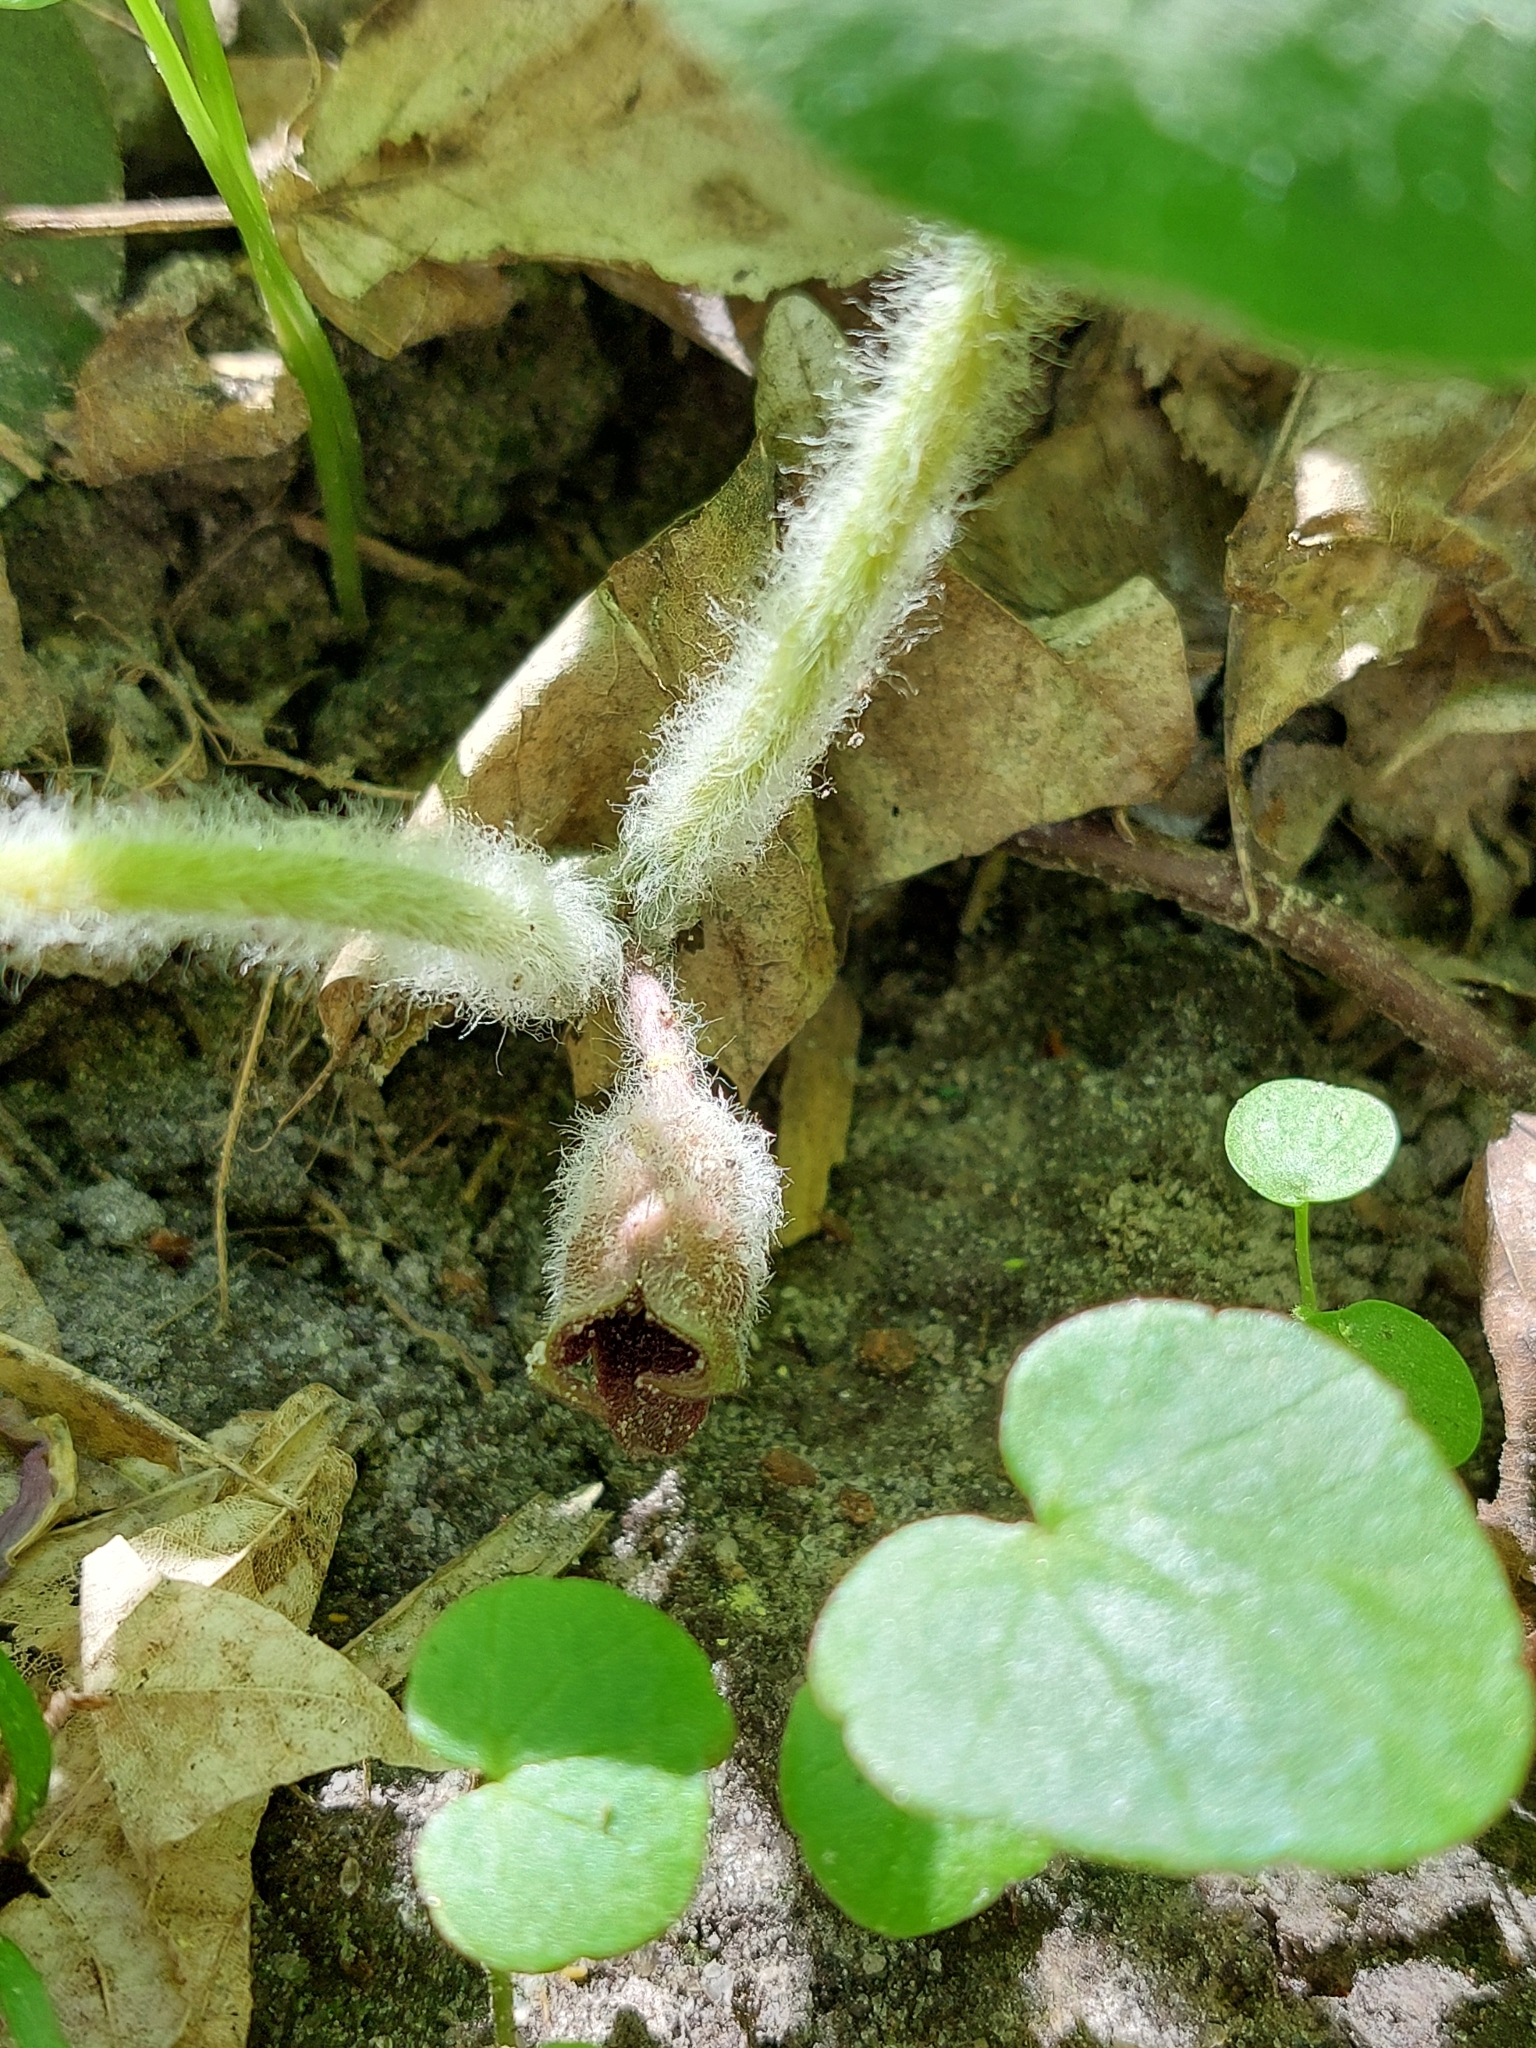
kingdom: Plantae
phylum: Tracheophyta
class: Magnoliopsida
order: Piperales
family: Aristolochiaceae
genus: Asarum
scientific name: Asarum europaeum
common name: Asarabacca
